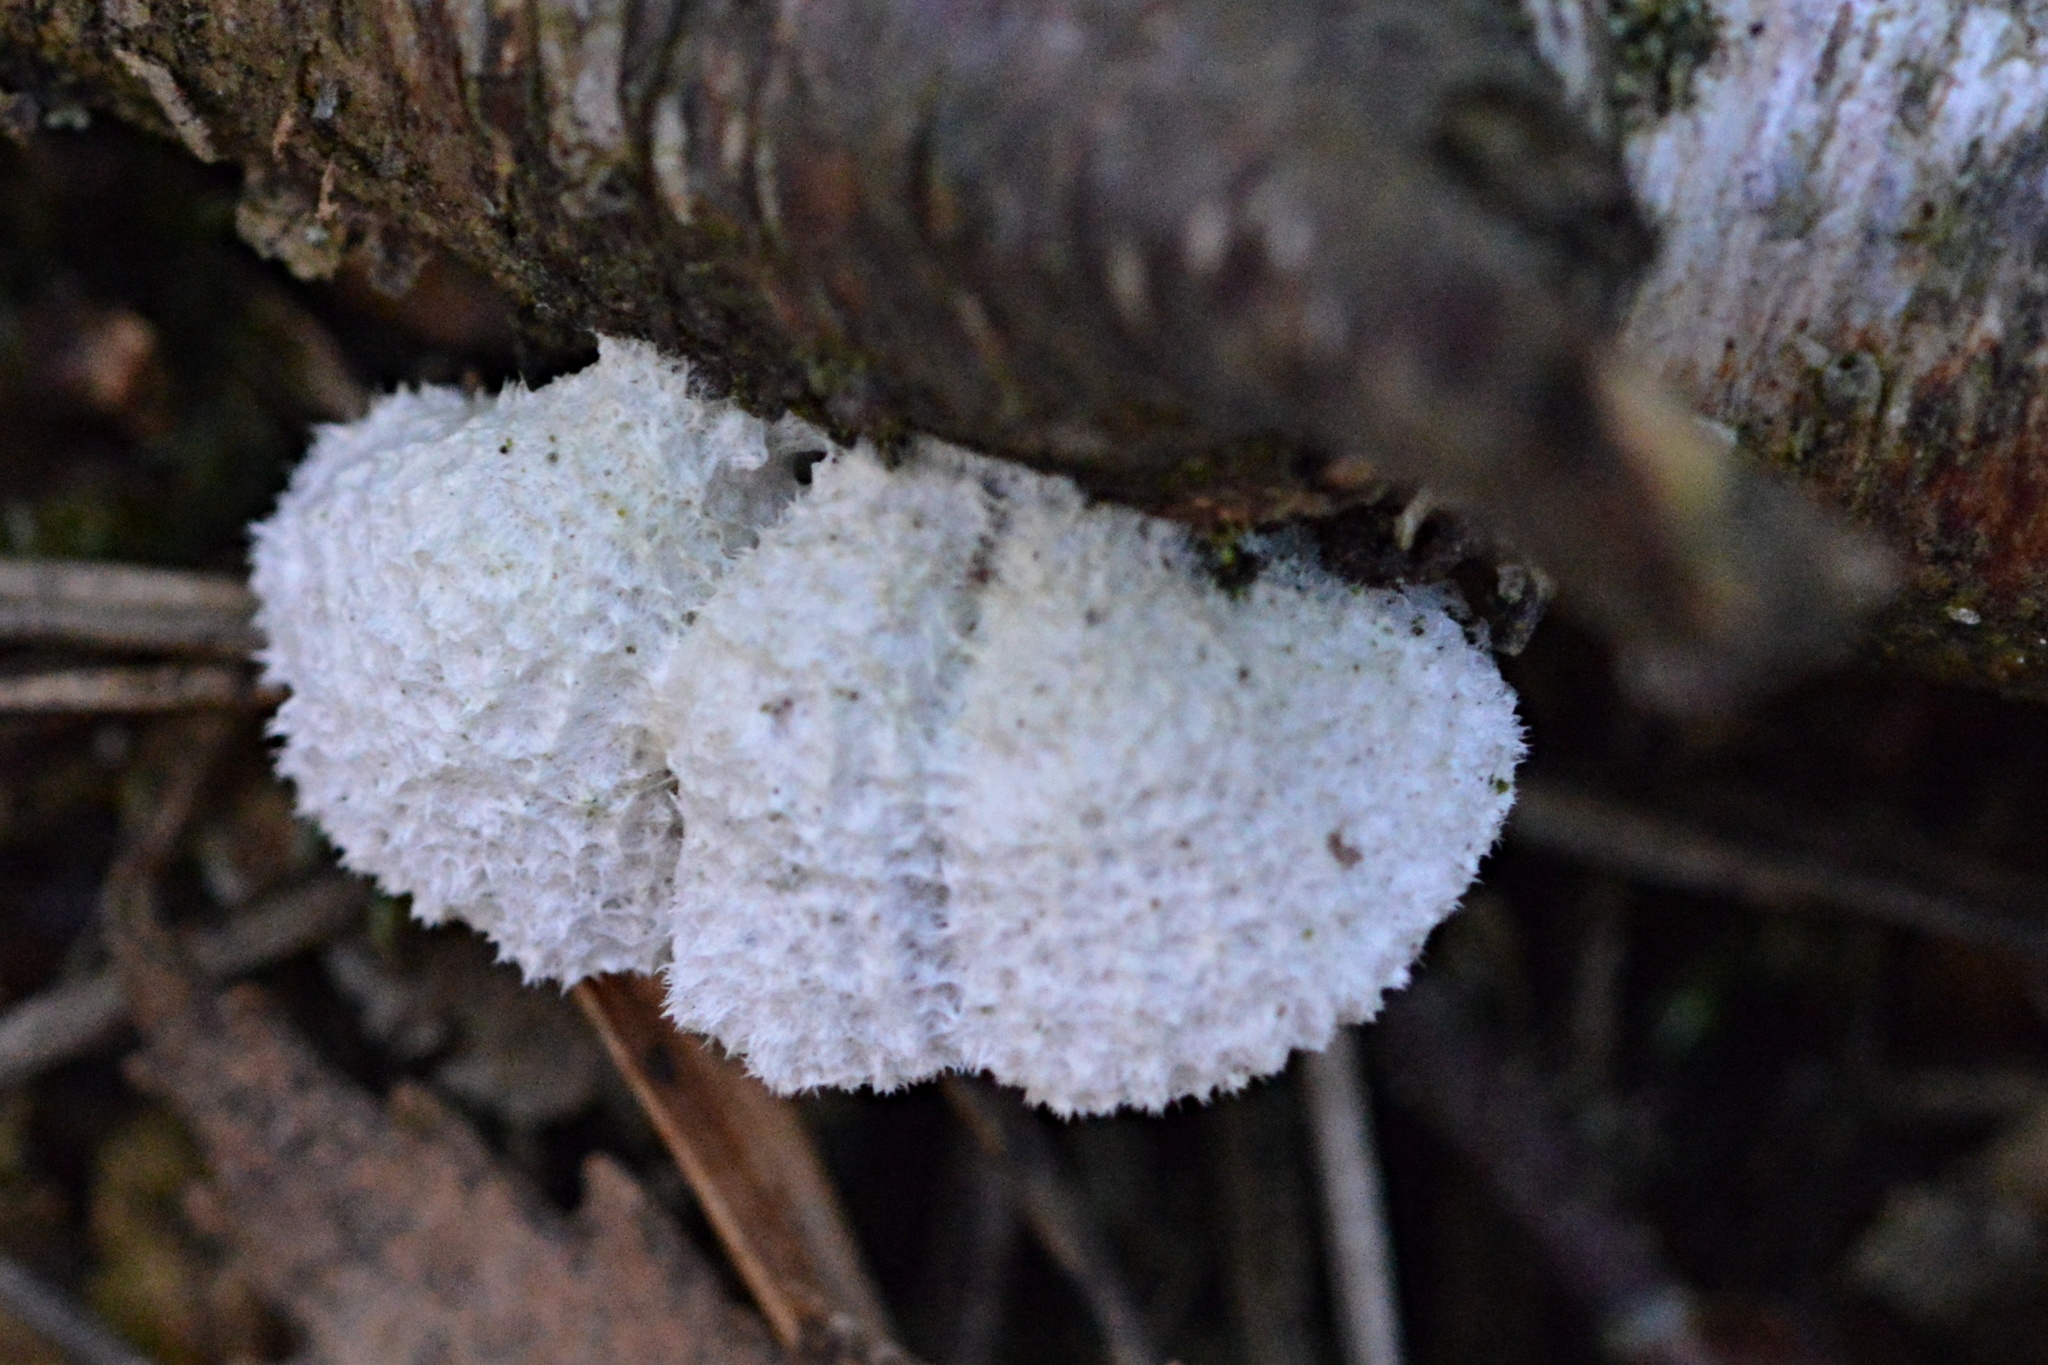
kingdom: Fungi
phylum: Basidiomycota
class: Agaricomycetes
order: Agaricales
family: Schizophyllaceae
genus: Schizophyllum
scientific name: Schizophyllum commune
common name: Common porecrust
